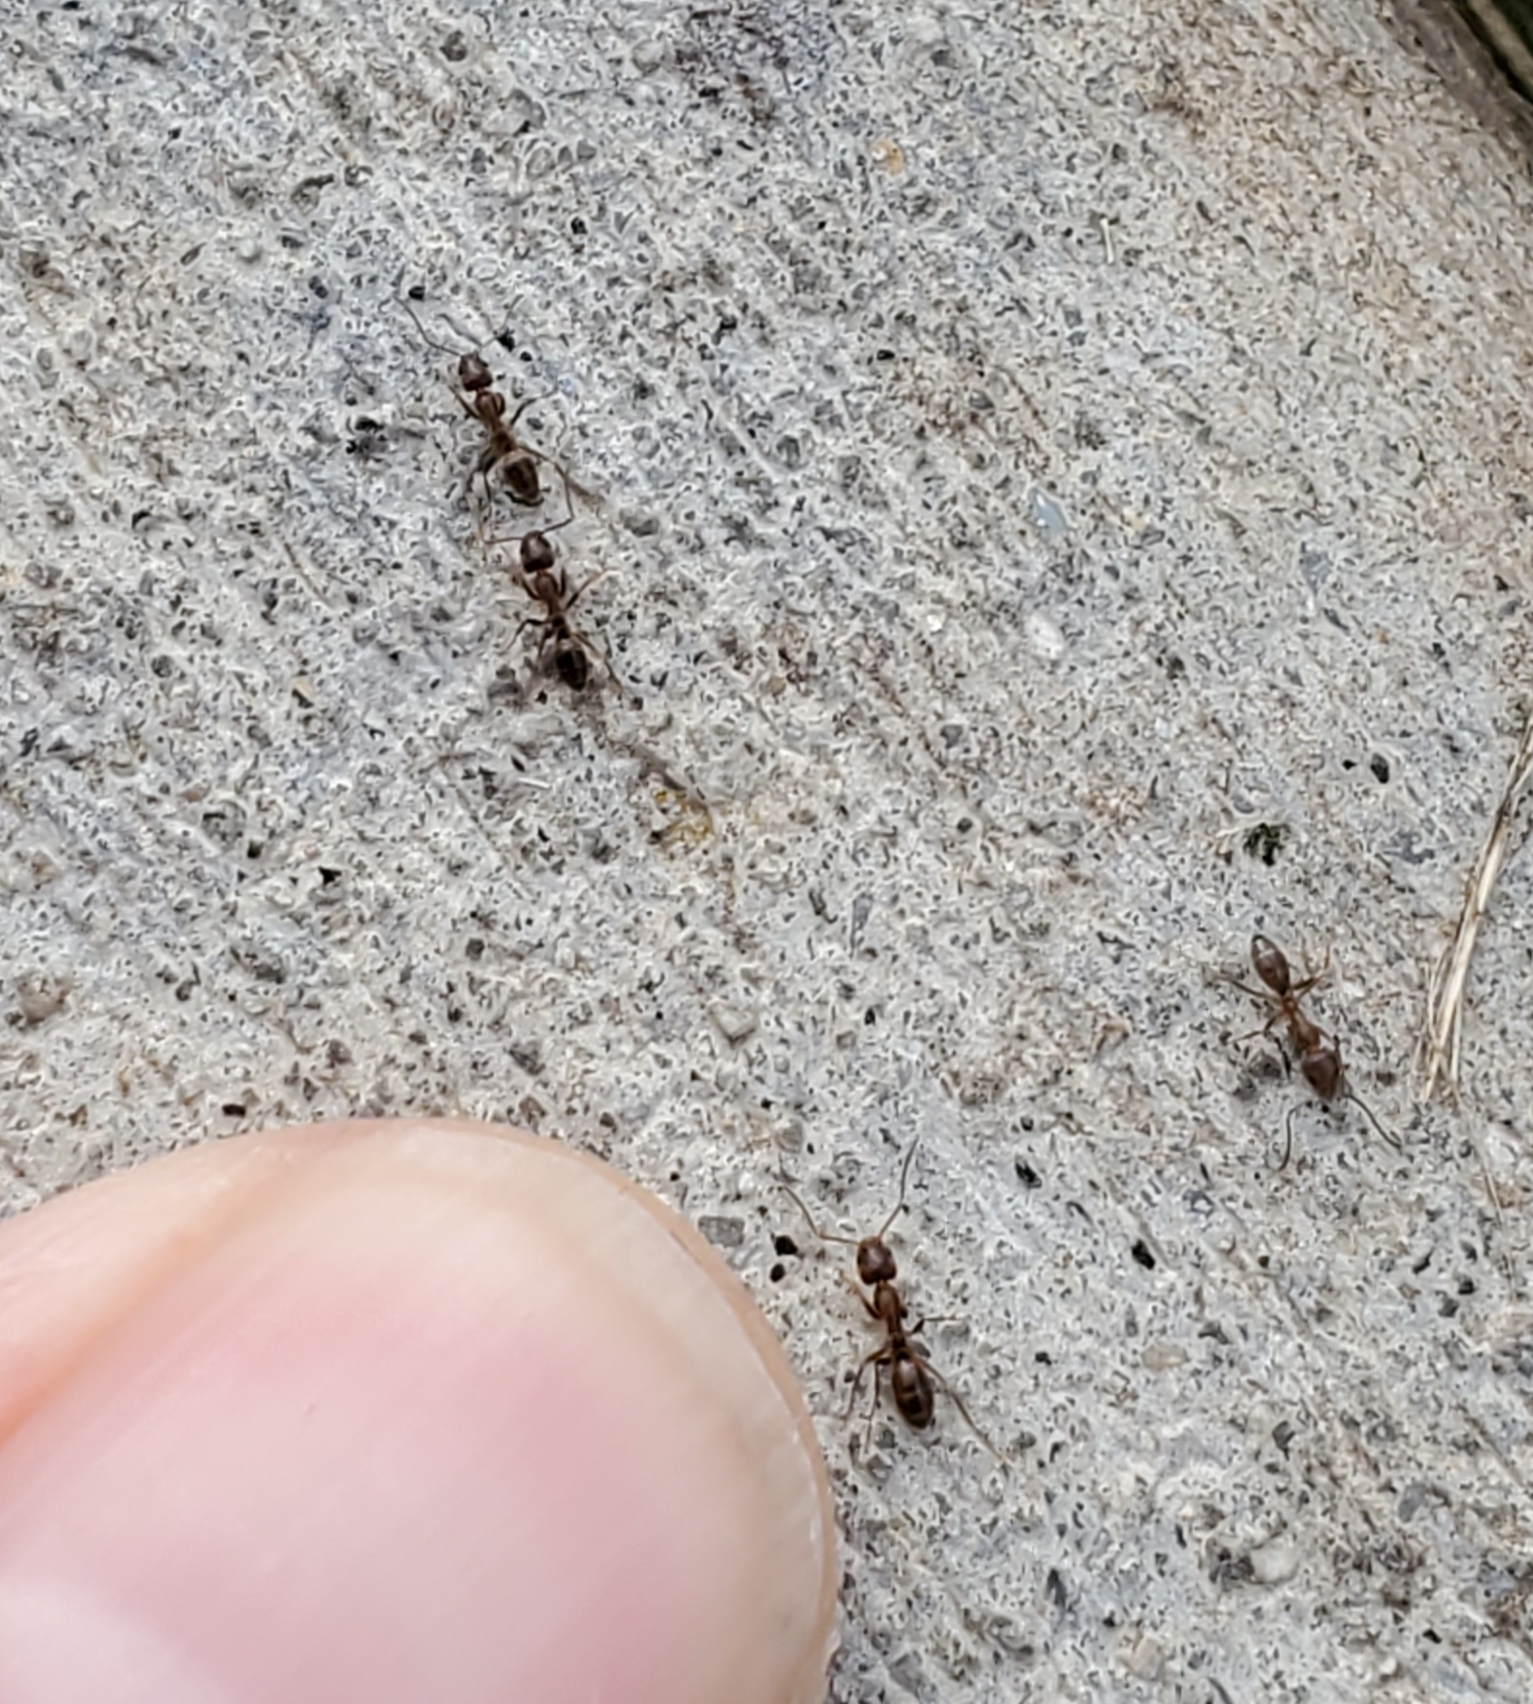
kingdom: Animalia
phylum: Arthropoda
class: Insecta
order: Hymenoptera
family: Formicidae
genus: Linepithema
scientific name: Linepithema humile
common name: Argentine ant
